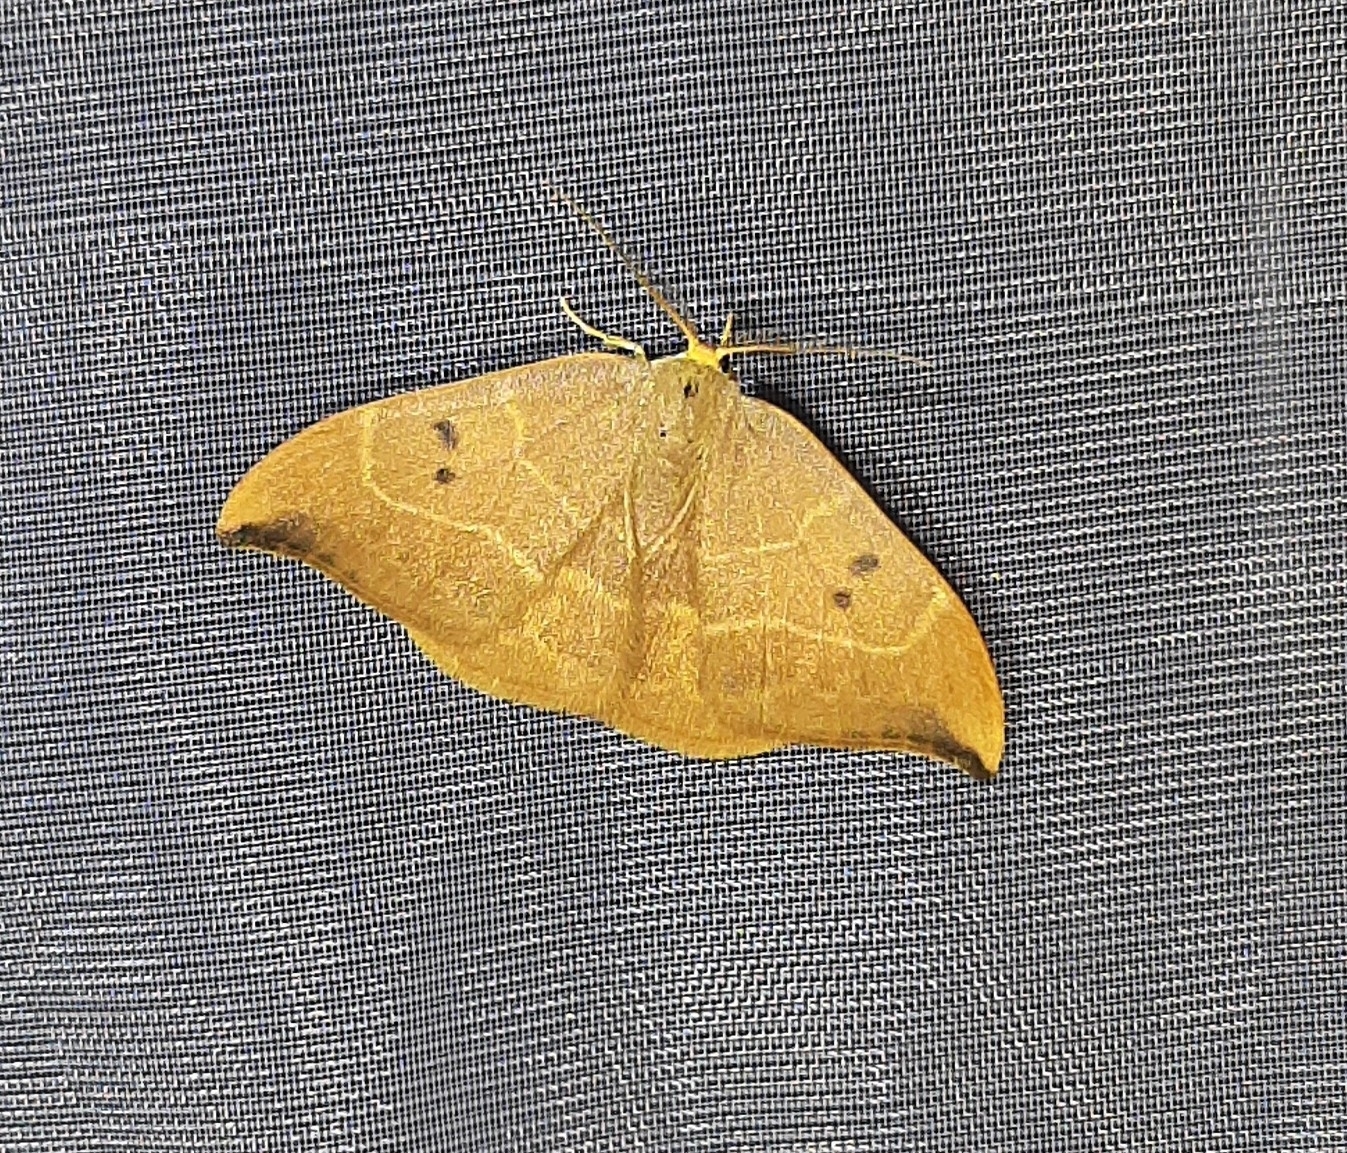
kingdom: Animalia
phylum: Arthropoda
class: Insecta
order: Lepidoptera
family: Drepanidae
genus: Watsonalla
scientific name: Watsonalla binaria
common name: Oak hook-tip
